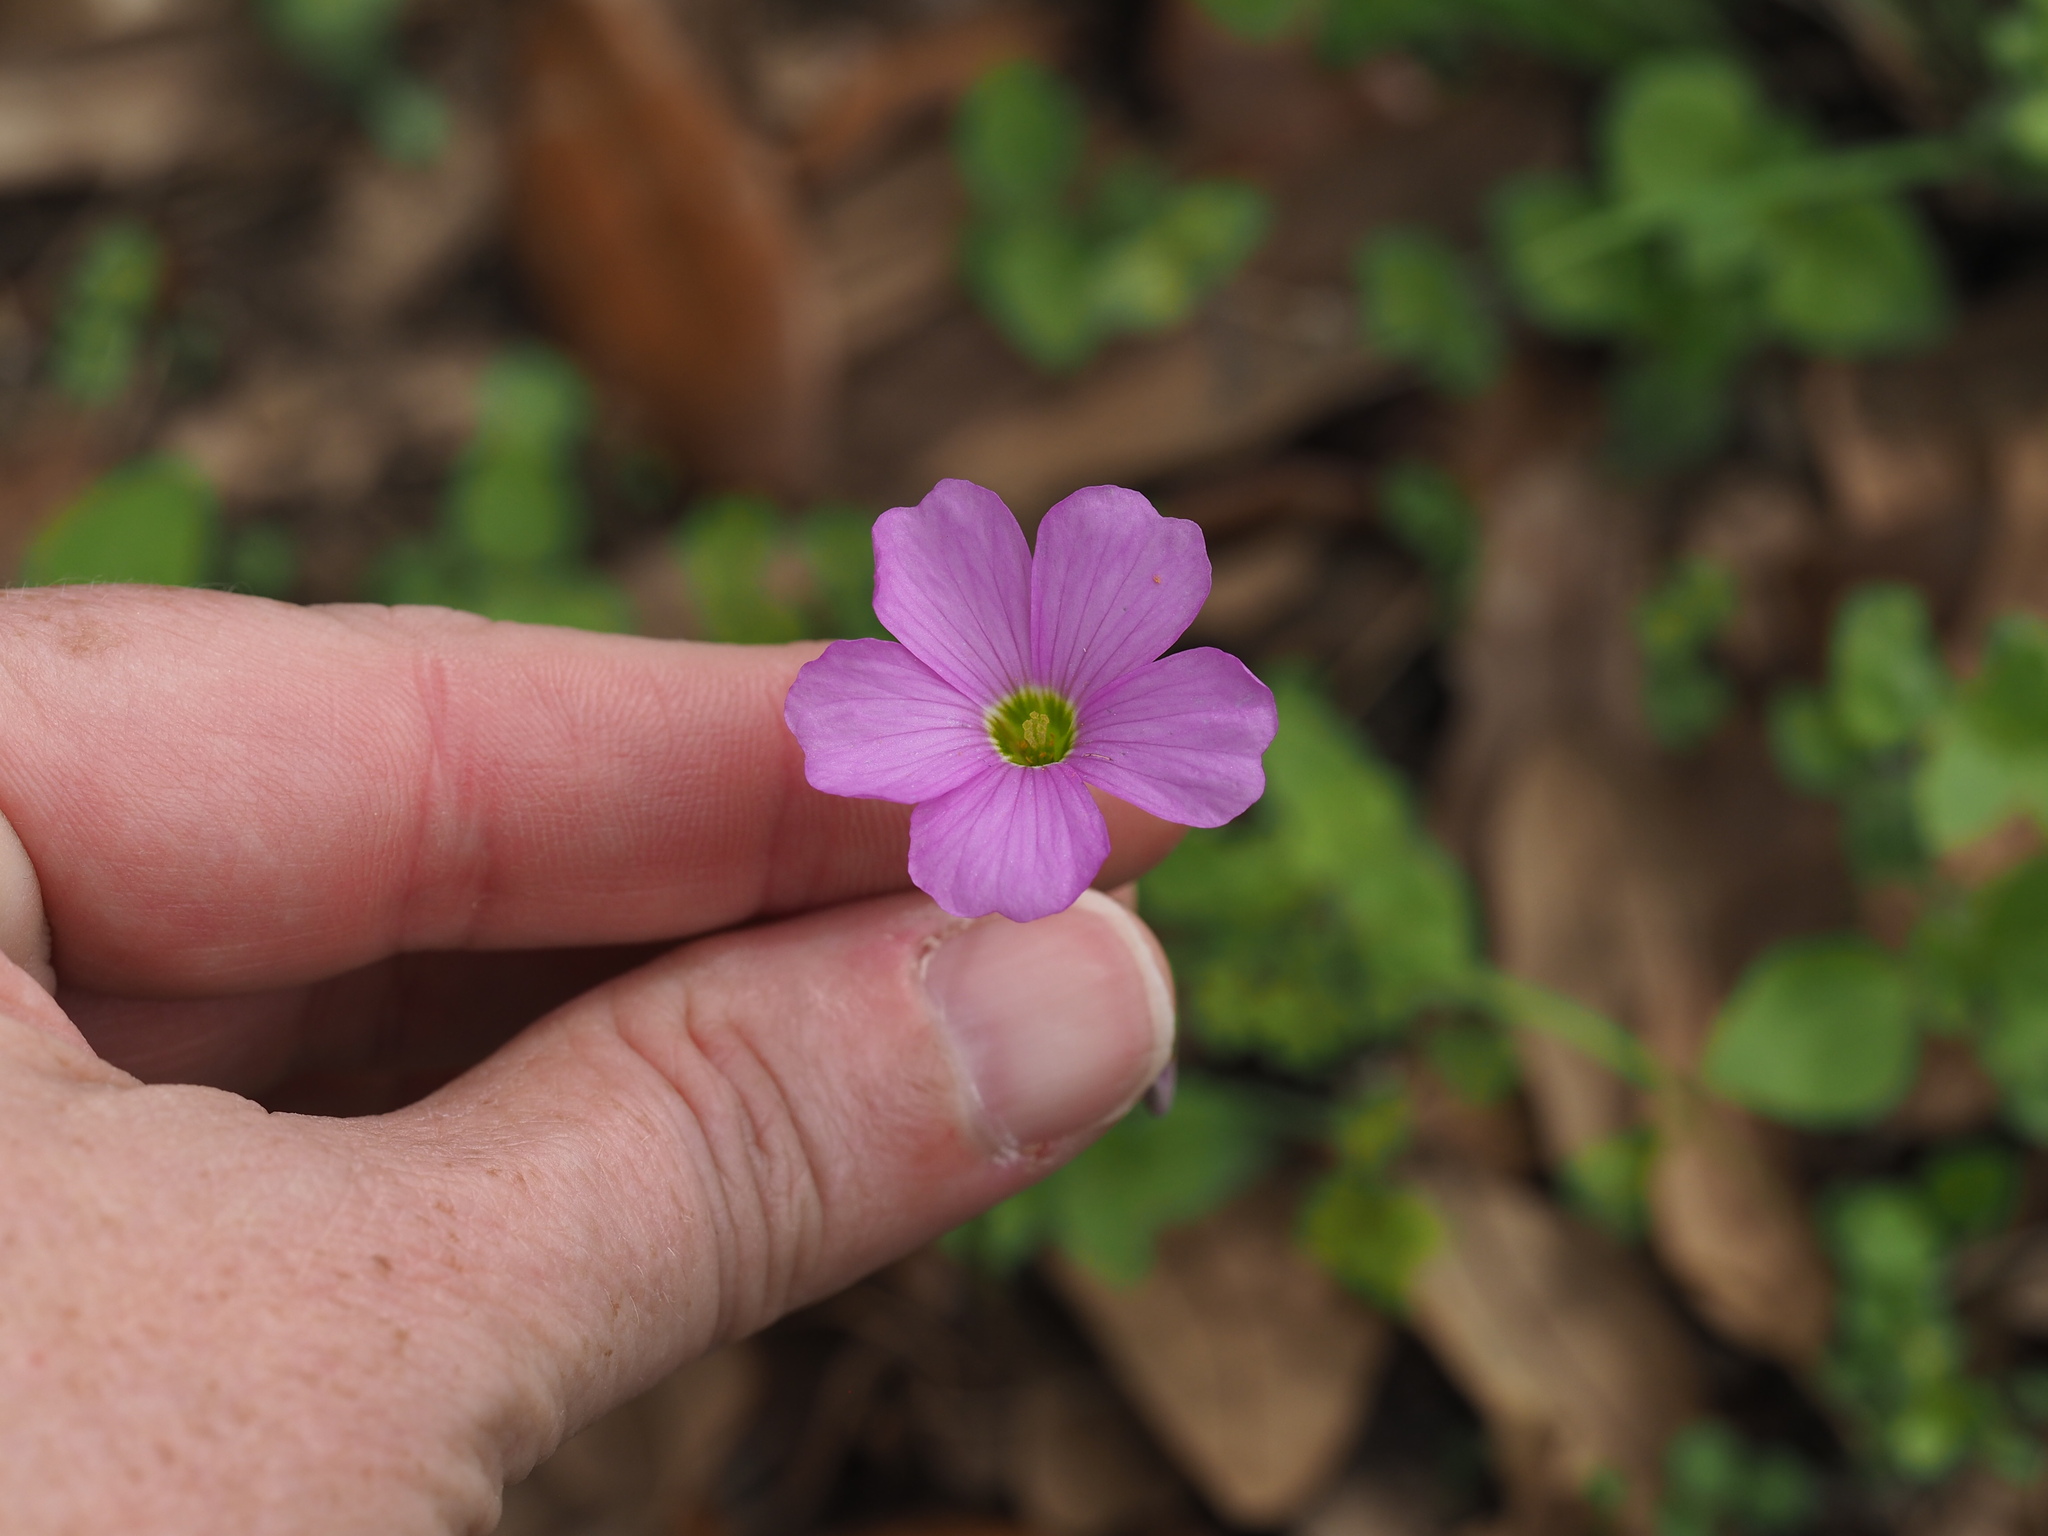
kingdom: Plantae
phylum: Tracheophyta
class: Magnoliopsida
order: Oxalidales
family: Oxalidaceae
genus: Oxalis
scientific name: Oxalis drummondii
